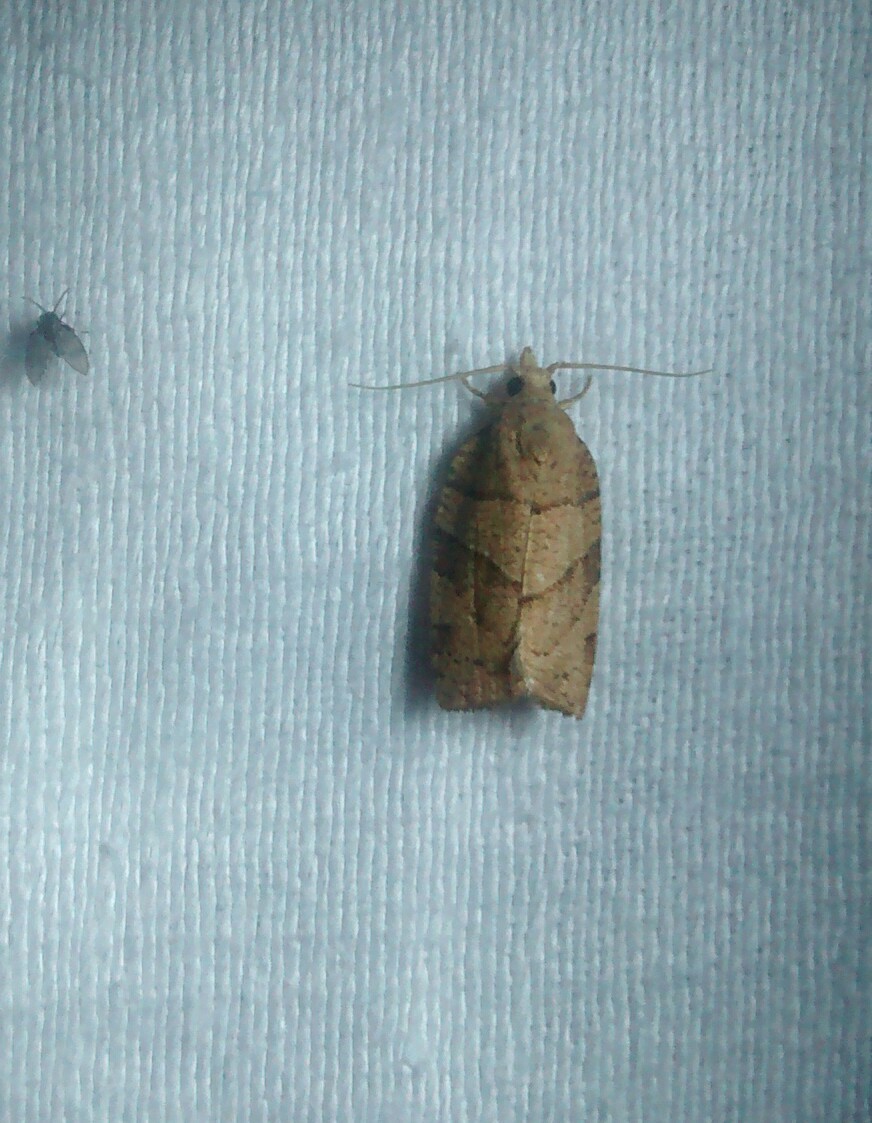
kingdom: Animalia
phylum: Arthropoda
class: Insecta
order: Lepidoptera
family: Tortricidae
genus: Pandemis
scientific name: Pandemis lamprosana
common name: Woodgrain leafroller moth
